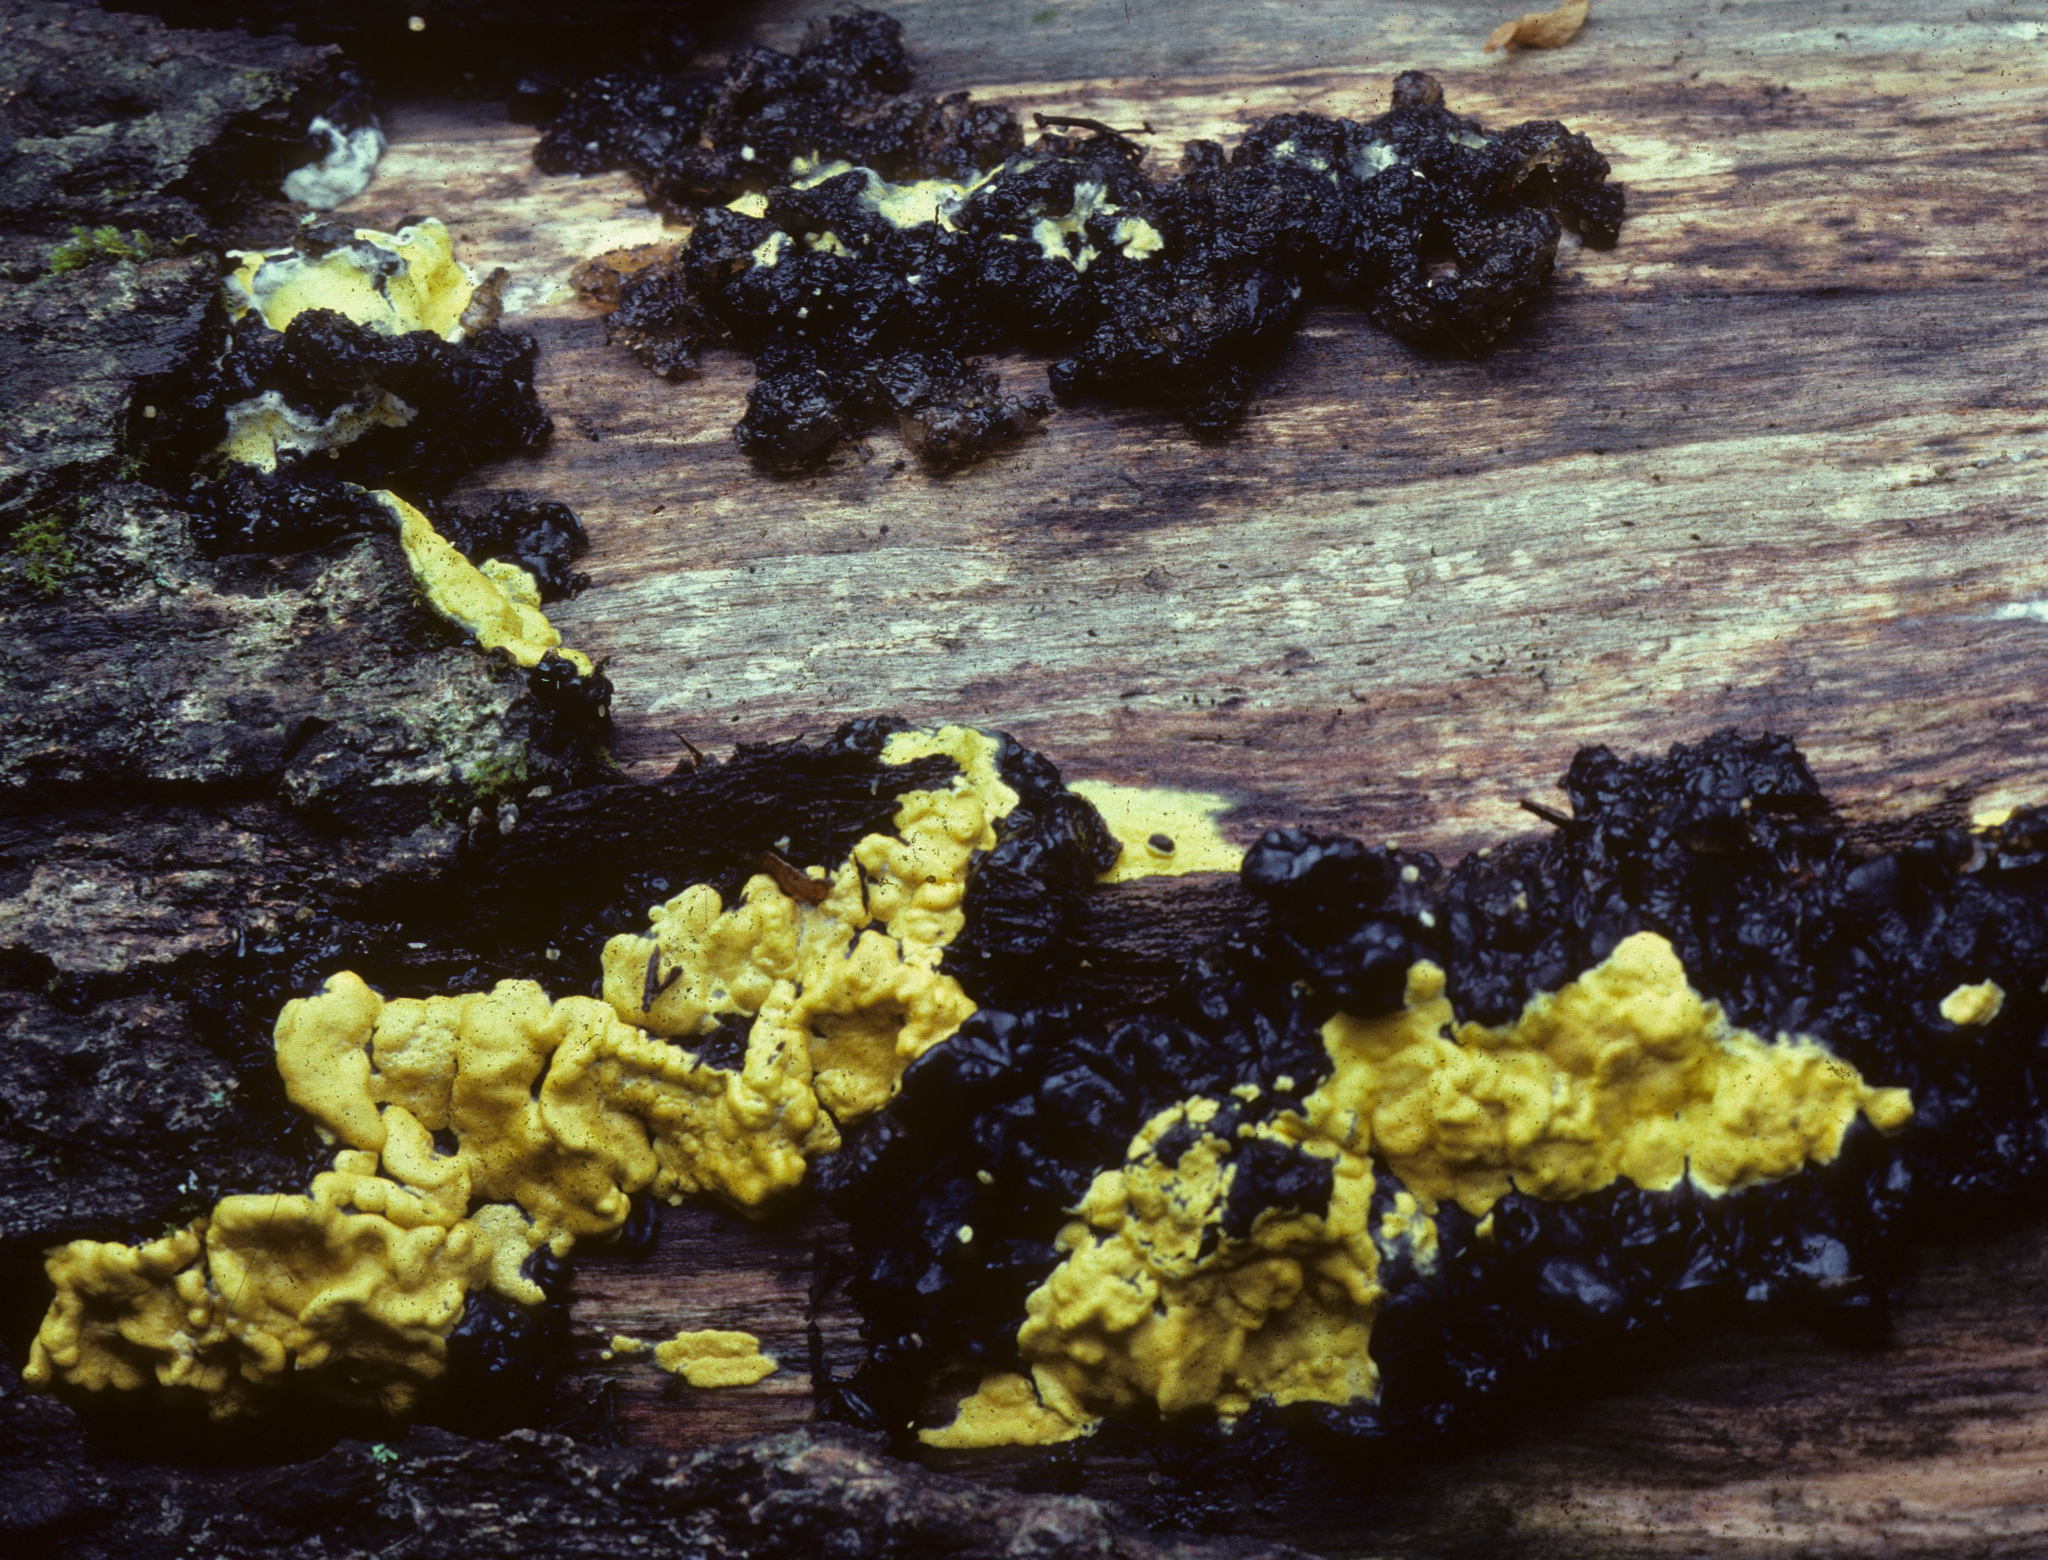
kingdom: Fungi
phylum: Ascomycota
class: Sordariomycetes
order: Hypocreales
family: Hypocreaceae
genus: Trichoderma
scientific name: Trichoderma sulphureum
